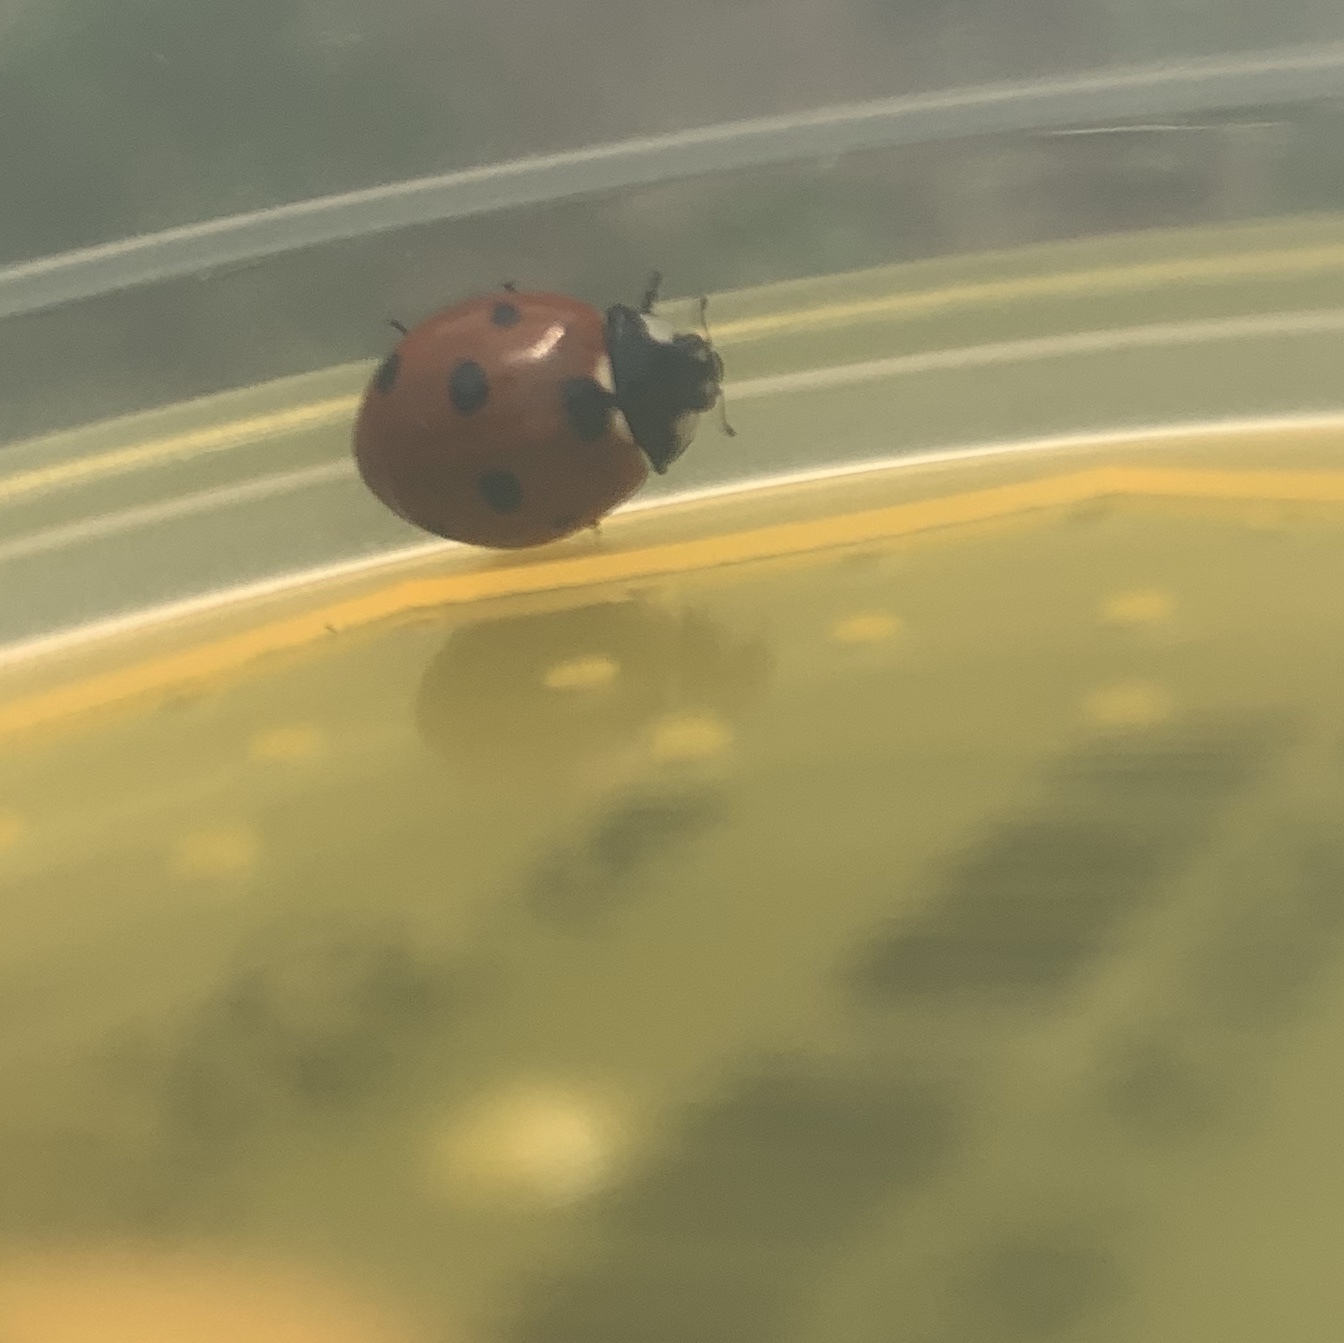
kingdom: Animalia
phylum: Arthropoda
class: Insecta
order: Coleoptera
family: Coccinellidae
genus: Coccinella
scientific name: Coccinella septempunctata
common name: Sevenspotted lady beetle
